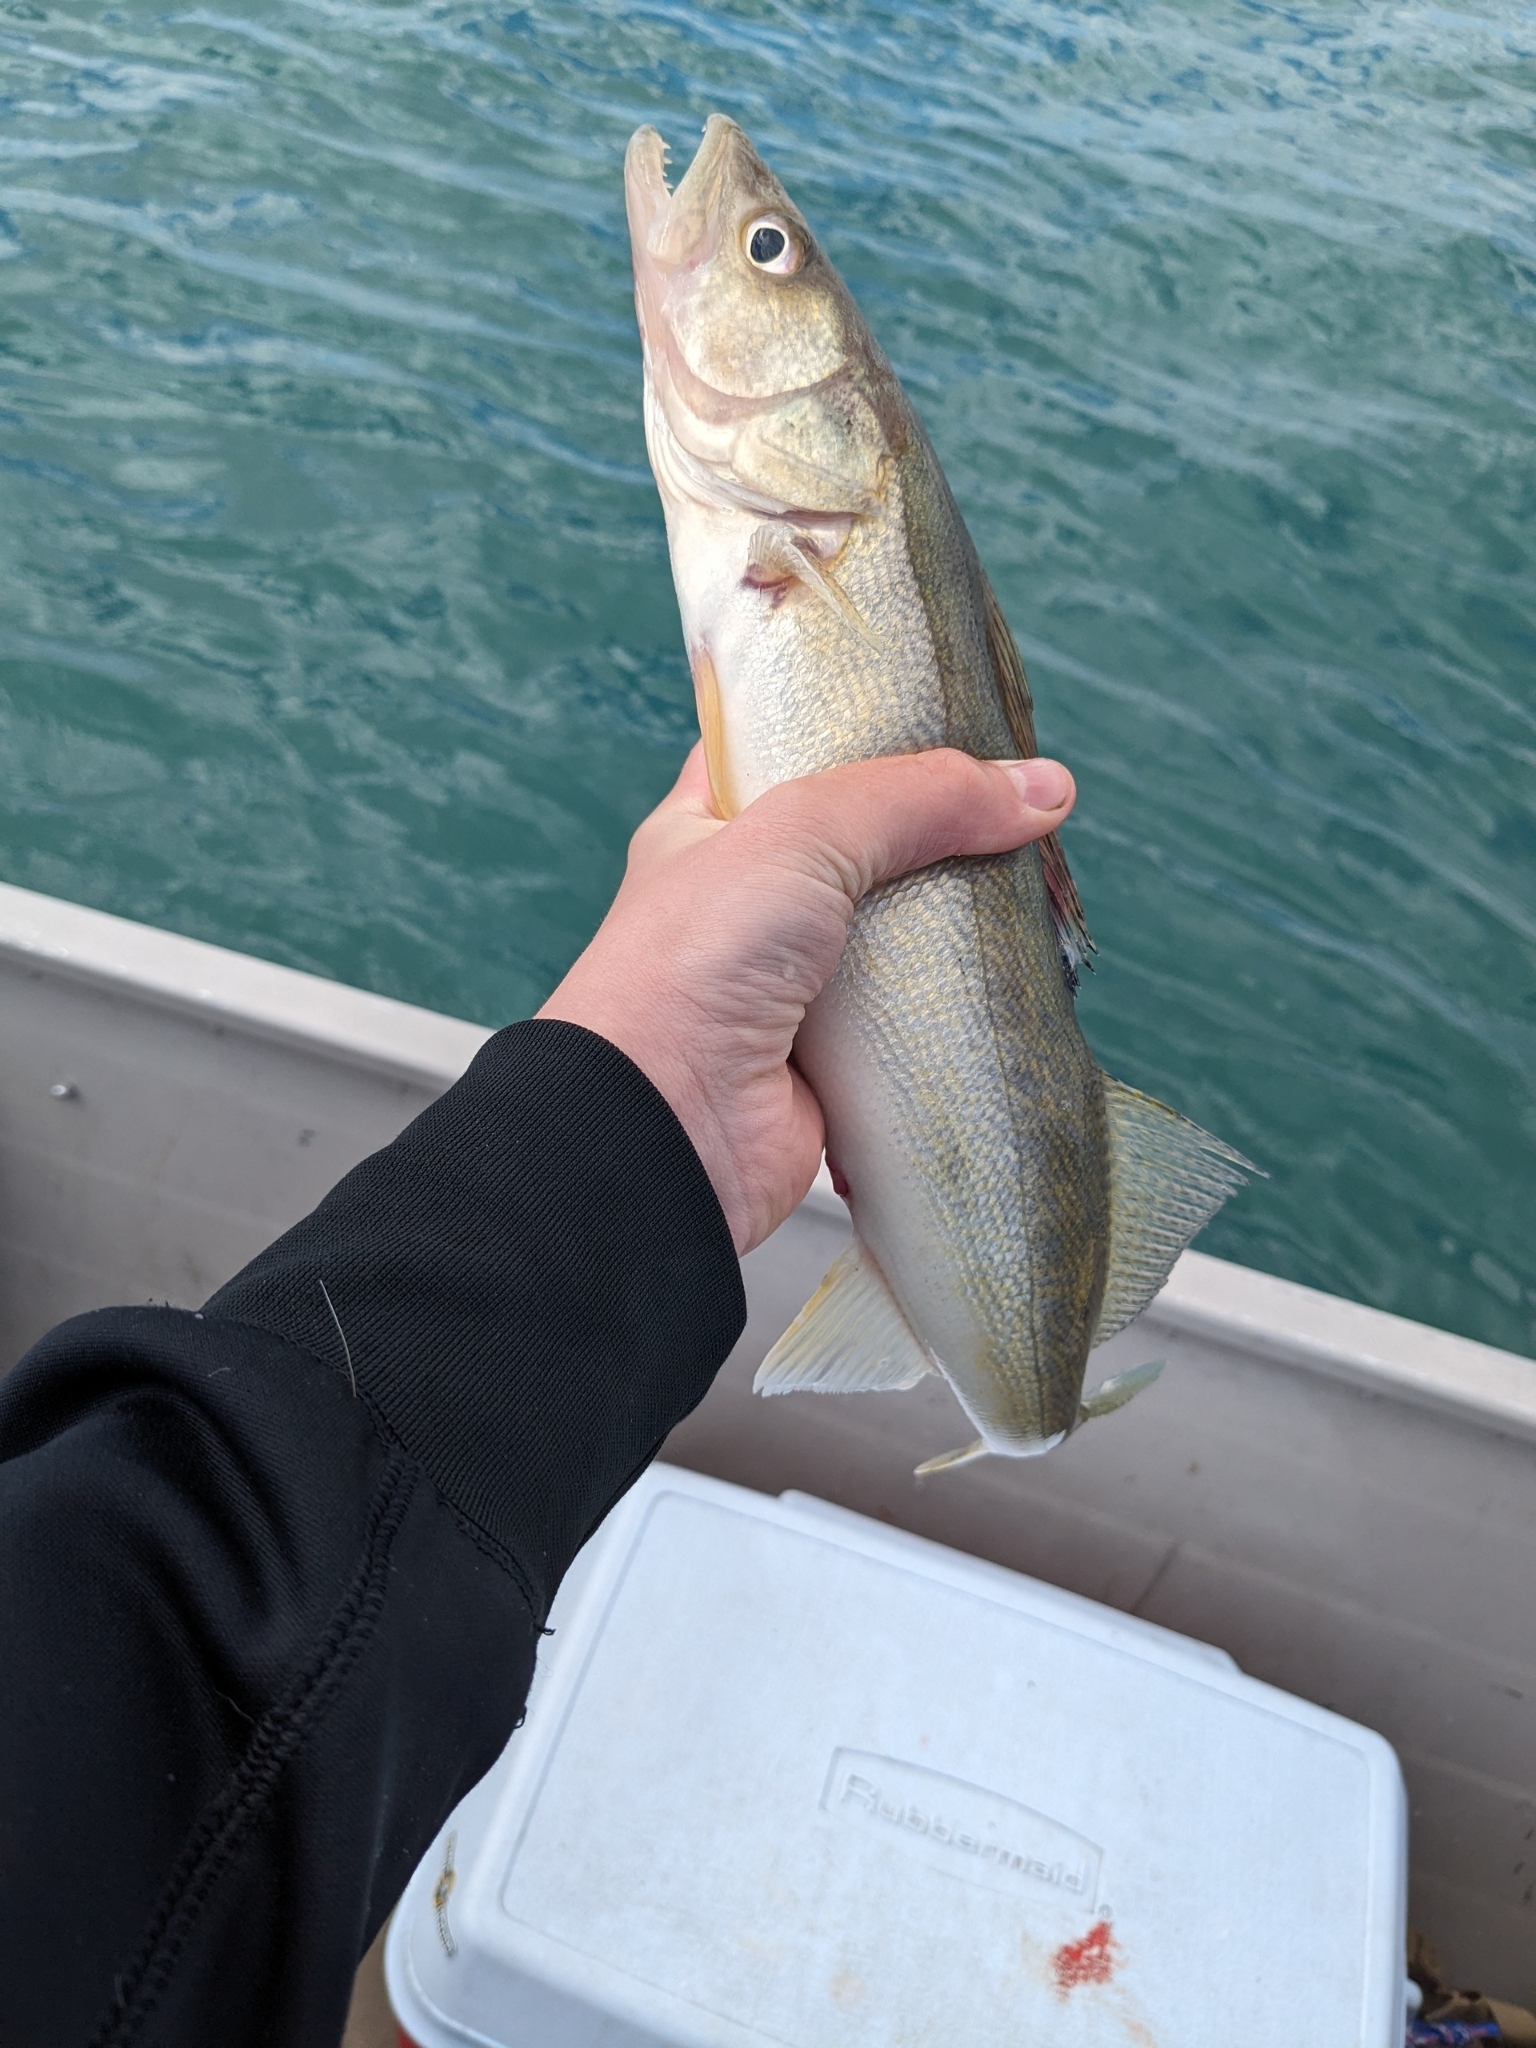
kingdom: Animalia
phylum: Chordata
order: Perciformes
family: Percidae
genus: Sander
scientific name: Sander vitreus
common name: Walleye
